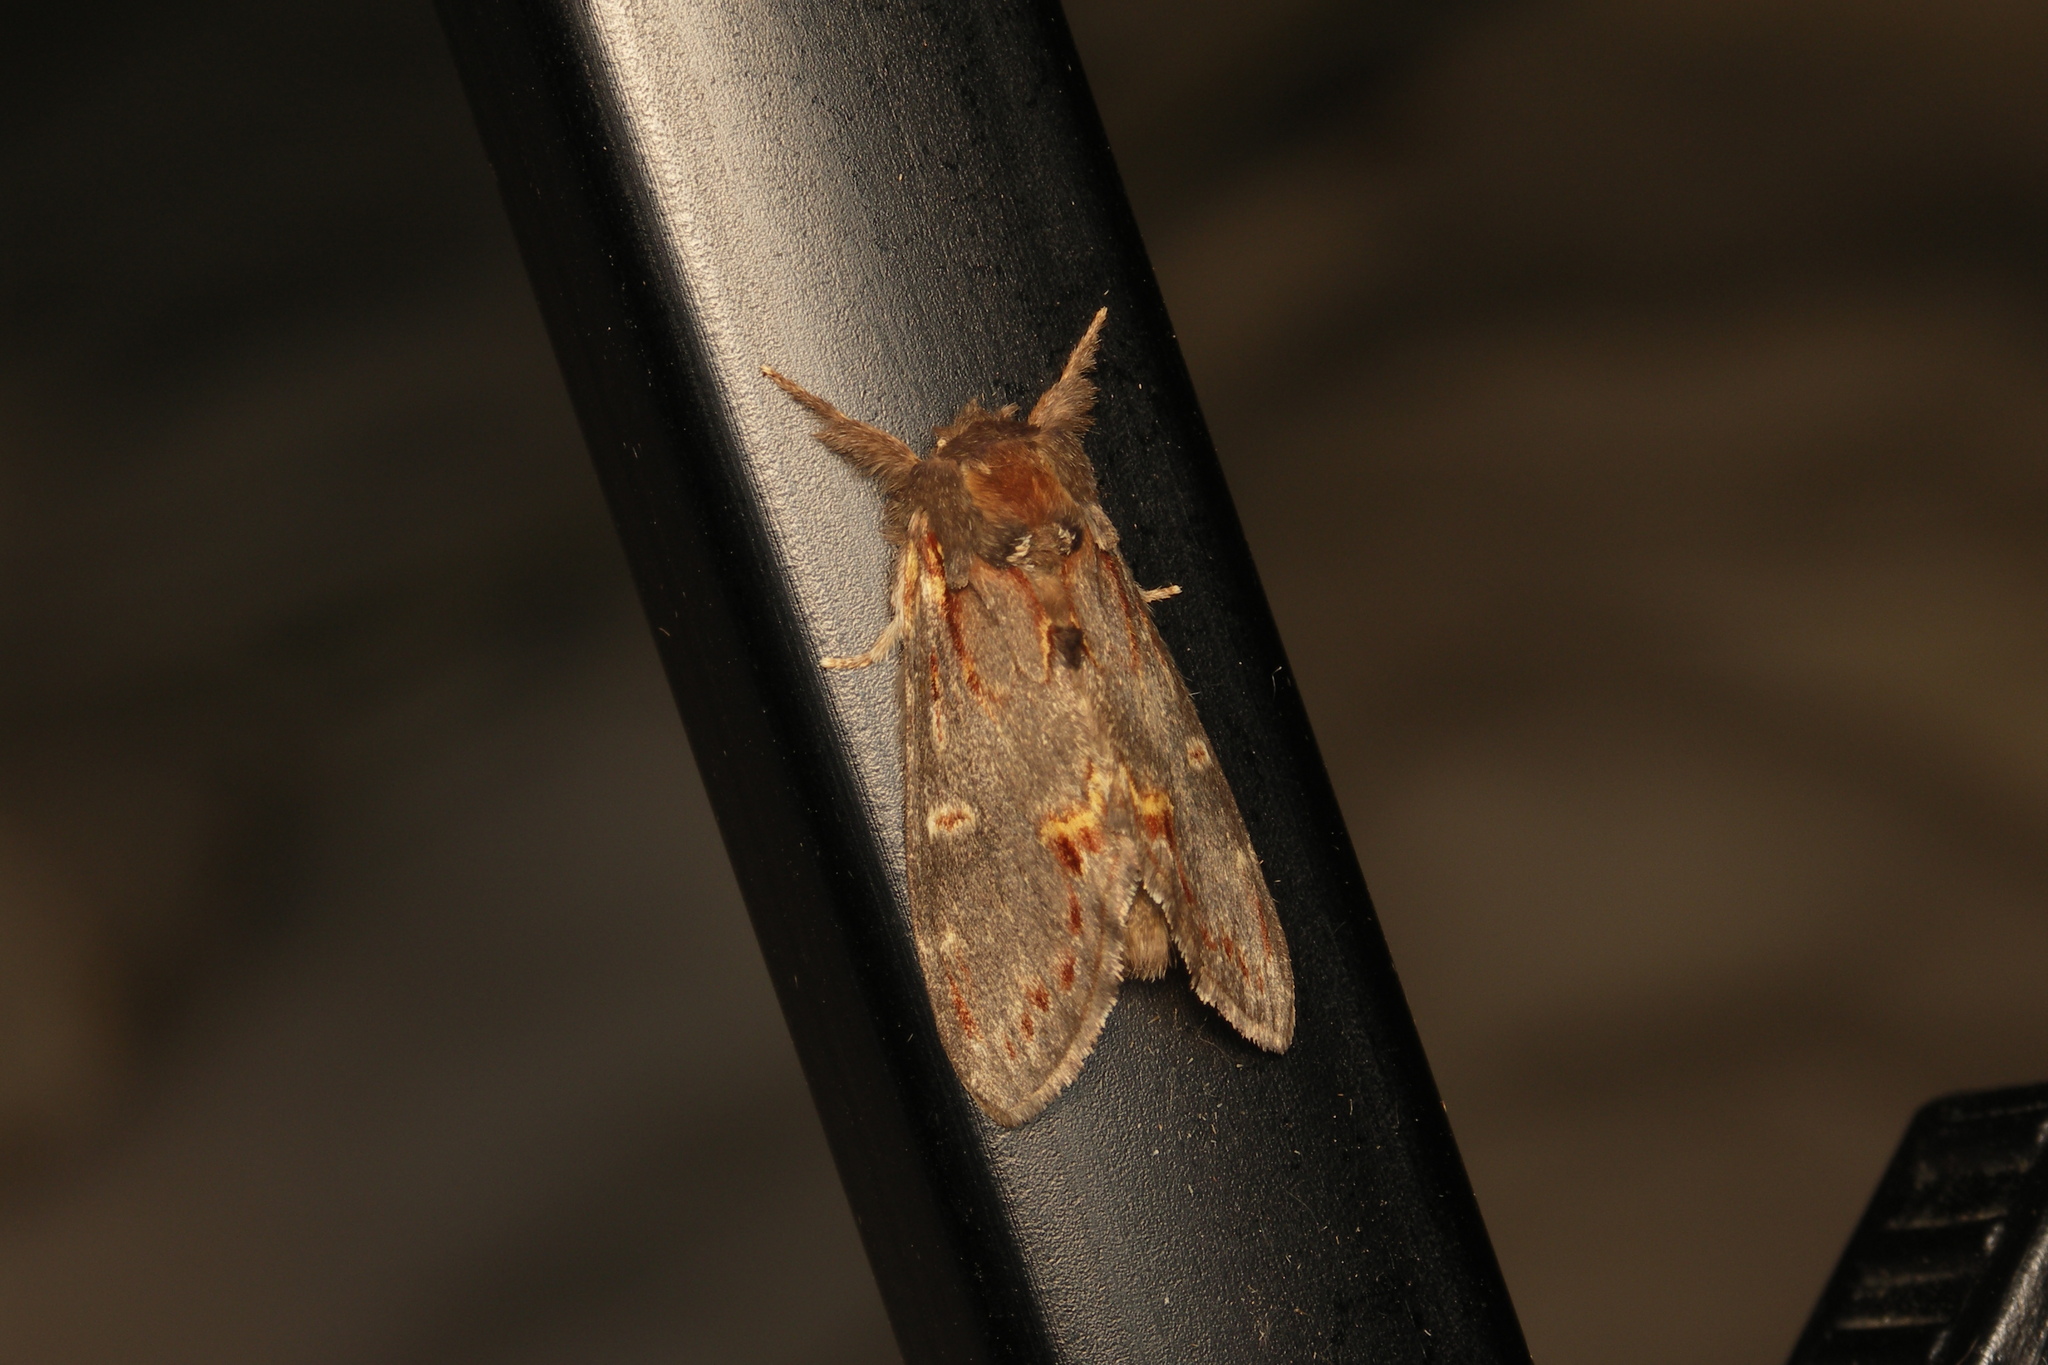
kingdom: Animalia
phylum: Arthropoda
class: Insecta
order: Lepidoptera
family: Notodontidae
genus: Notodonta
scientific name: Notodonta dromedarius
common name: Iron prominent
